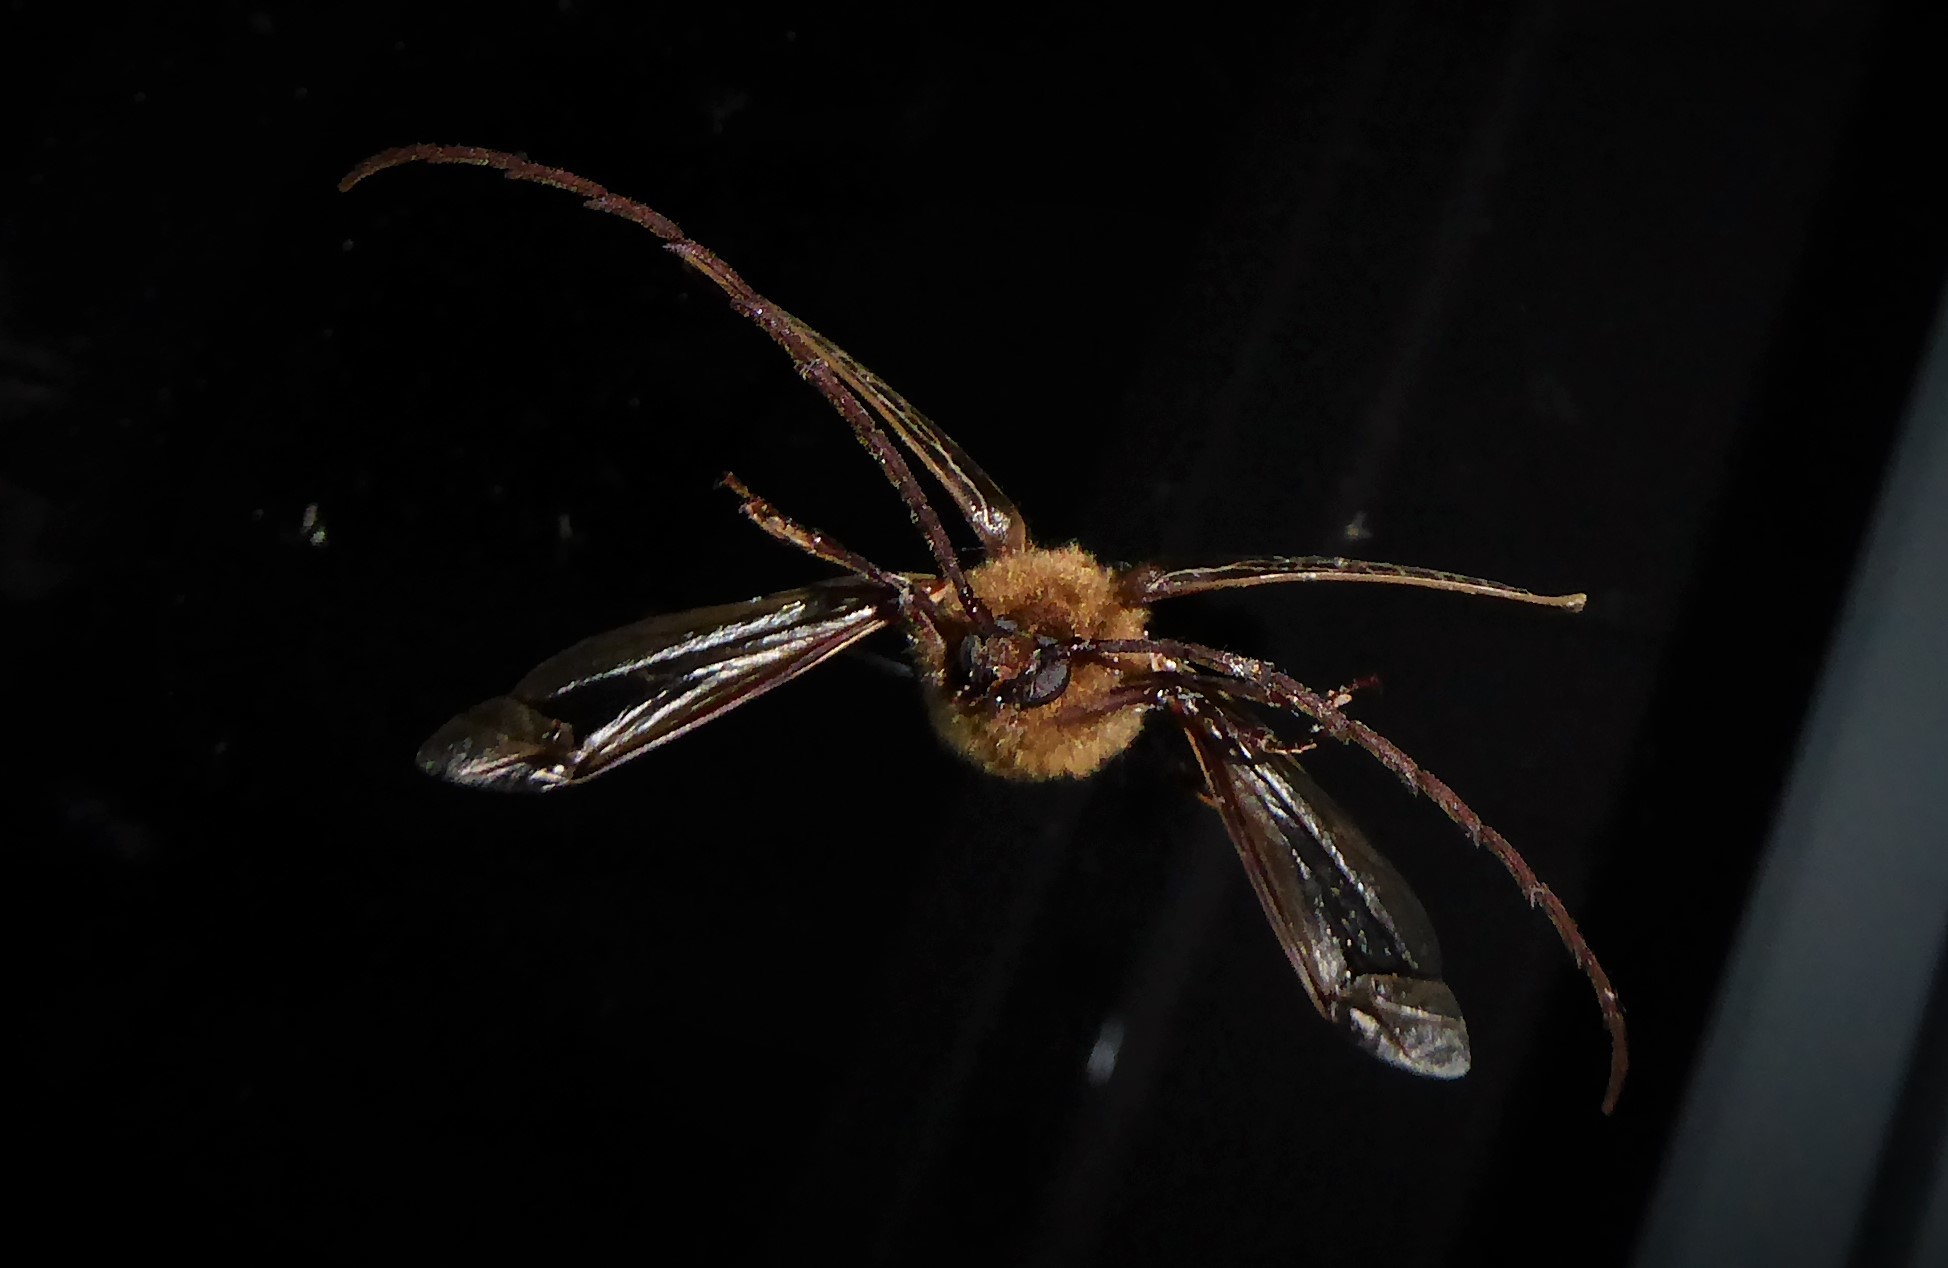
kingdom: Animalia
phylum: Arthropoda
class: Insecta
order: Coleoptera
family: Cerambycidae
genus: Prionoplus
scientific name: Prionoplus reticularis
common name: Huhu beetle
